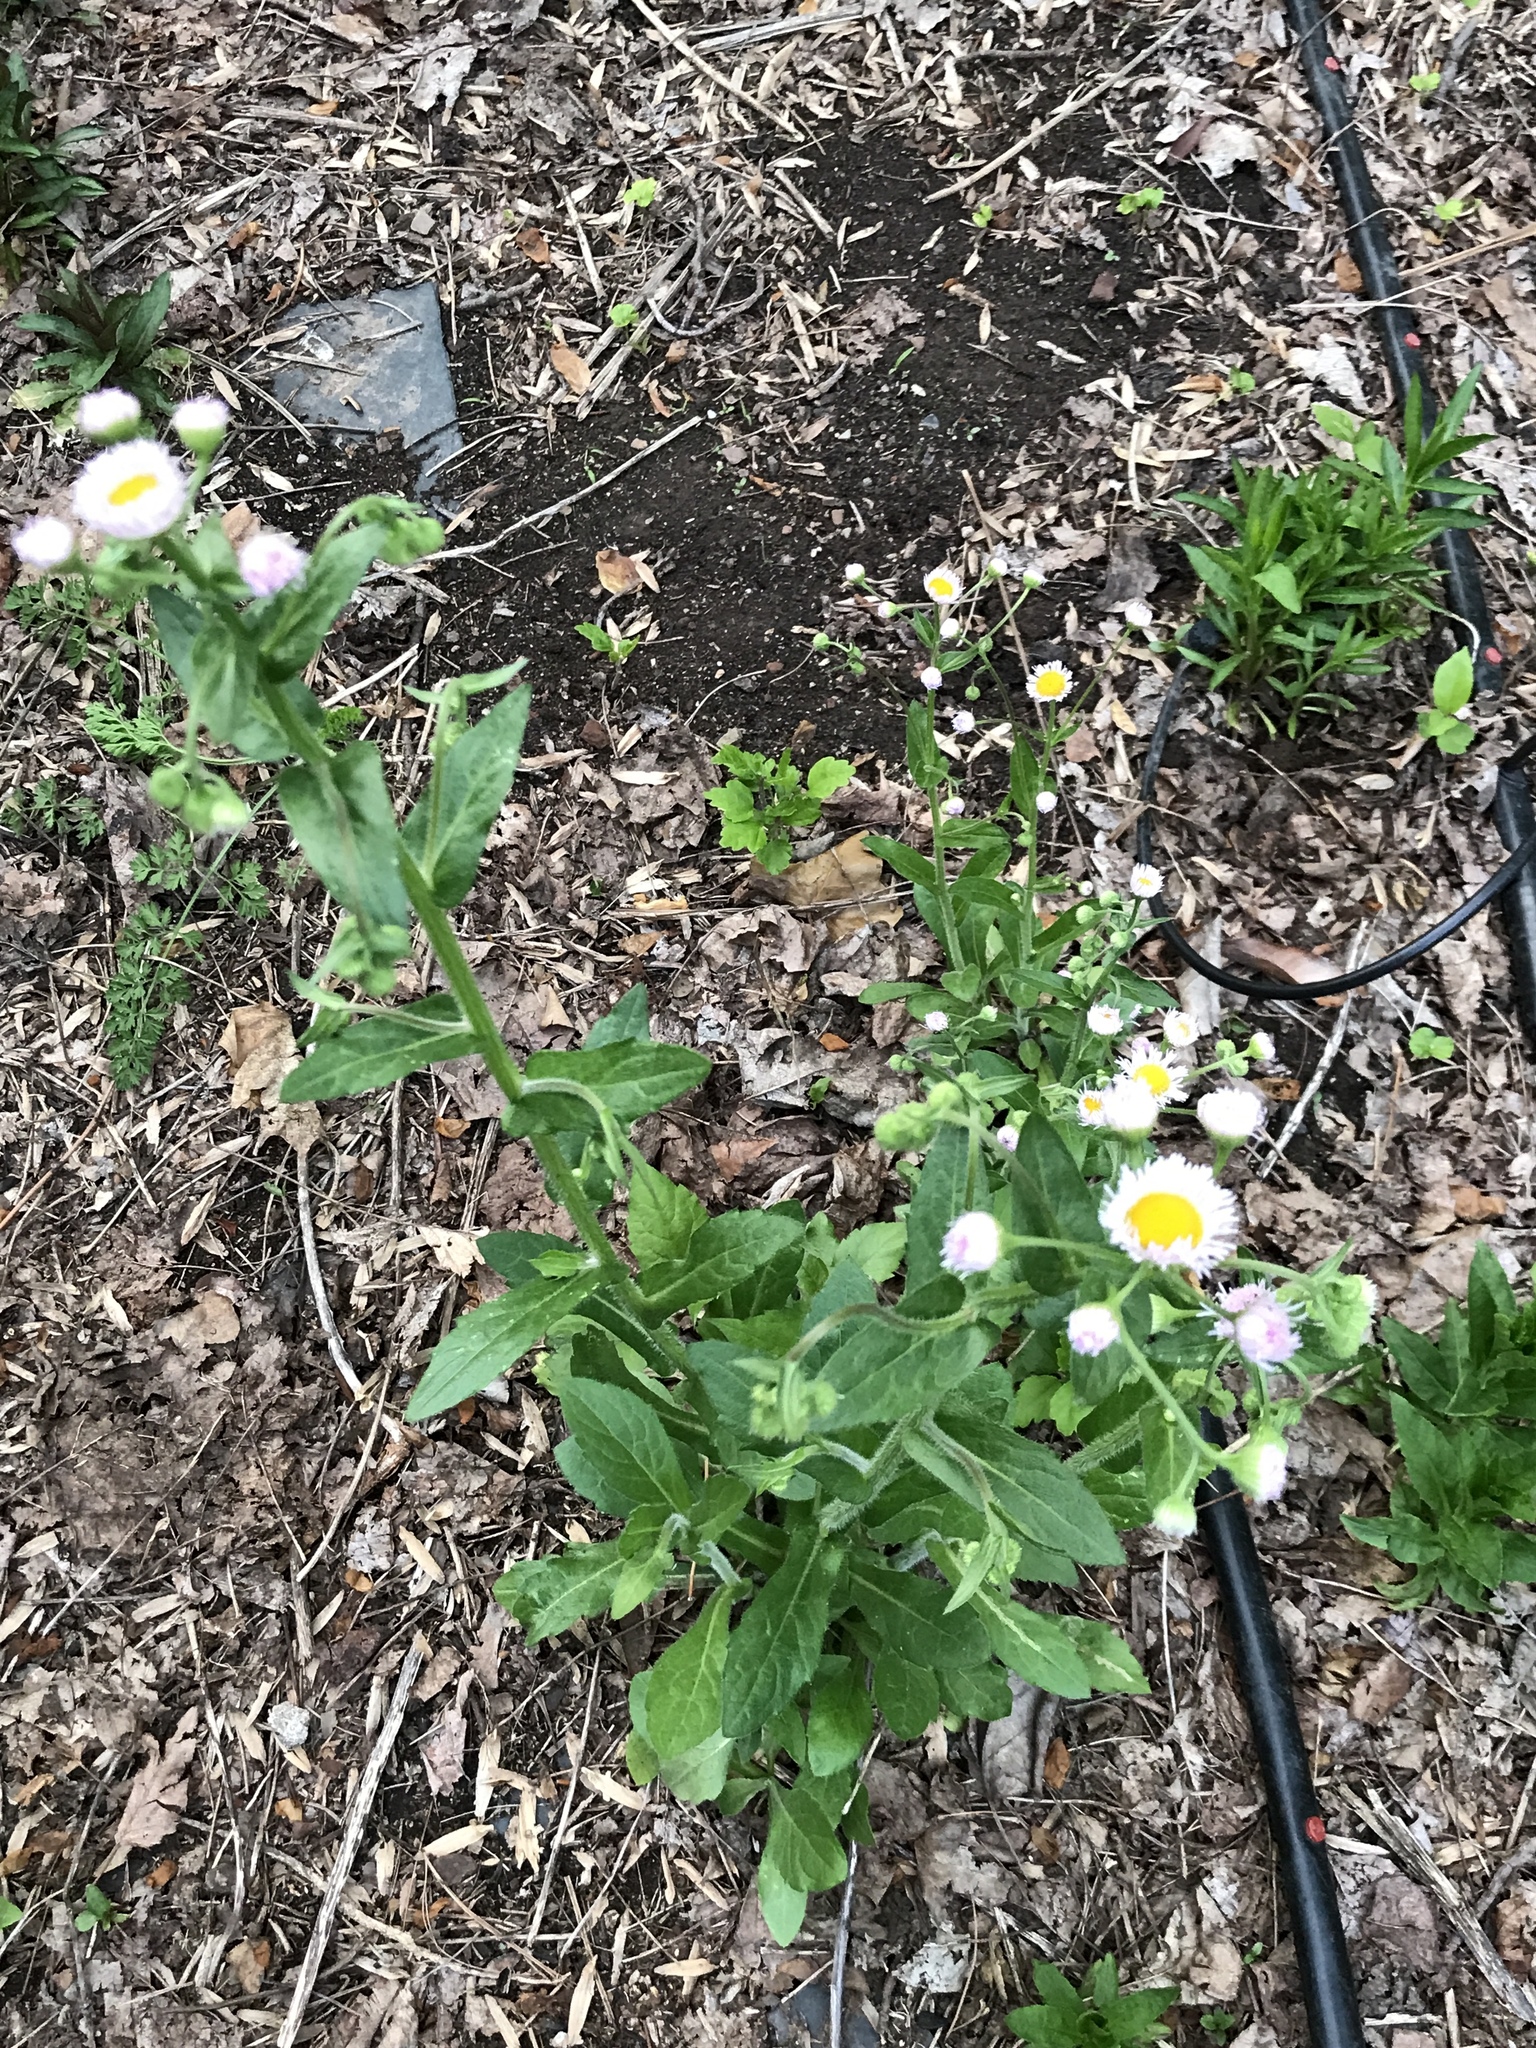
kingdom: Plantae
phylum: Tracheophyta
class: Magnoliopsida
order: Asterales
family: Asteraceae
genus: Erigeron
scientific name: Erigeron philadelphicus
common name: Robin's-plantain
